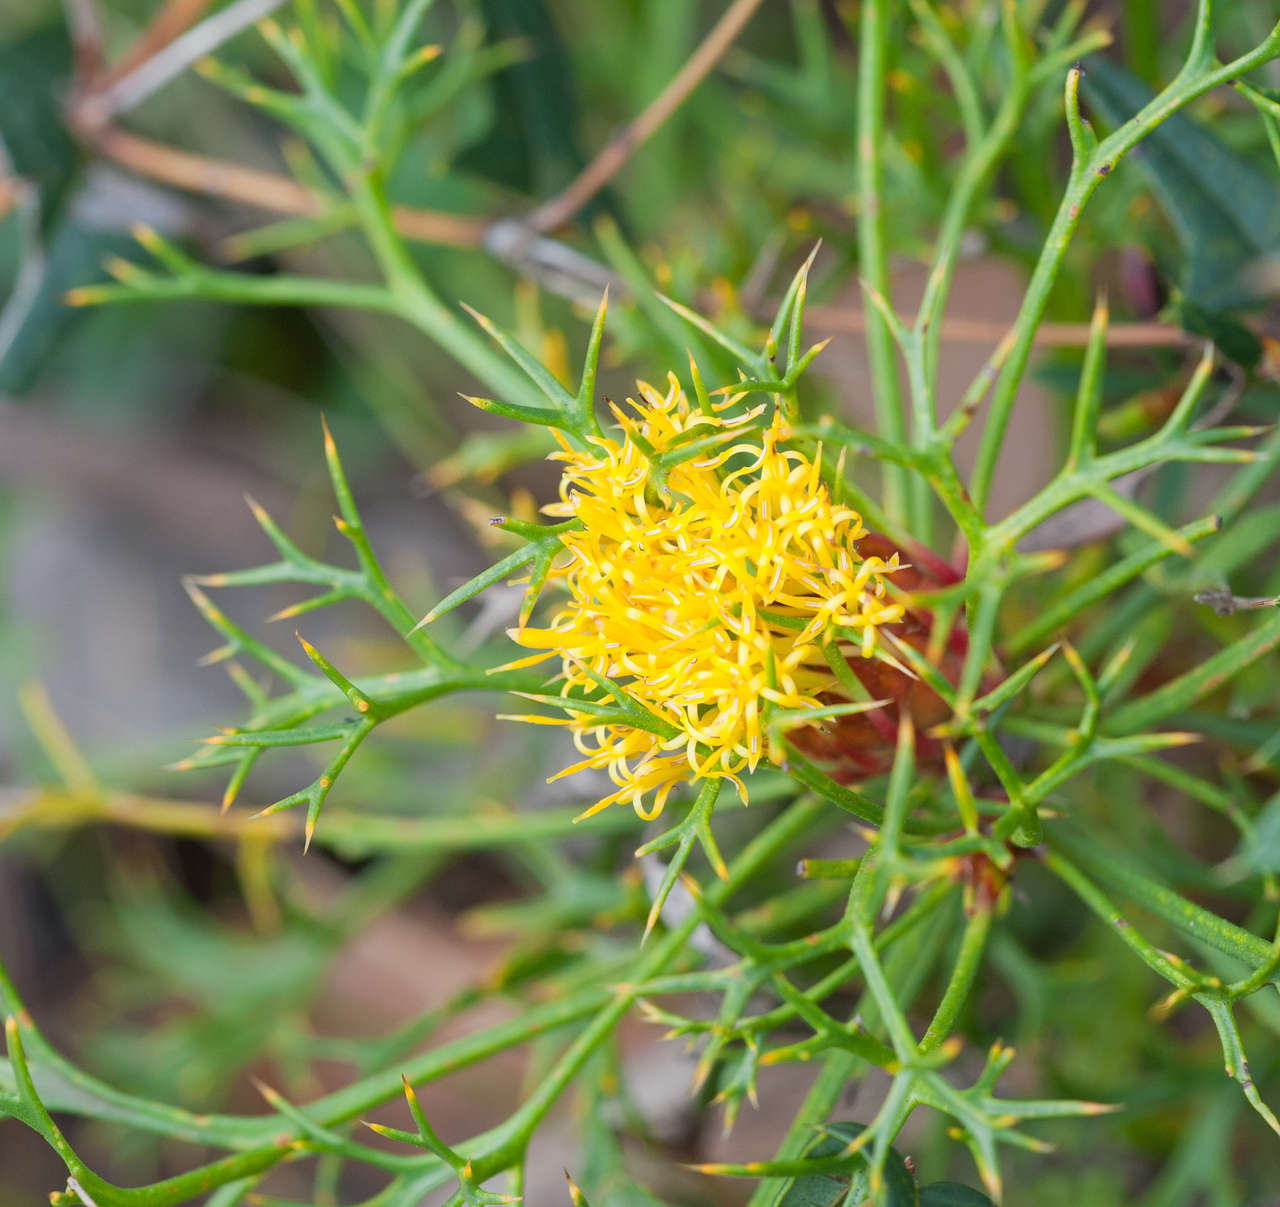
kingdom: Plantae
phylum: Tracheophyta
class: Magnoliopsida
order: Proteales
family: Proteaceae
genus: Isopogon
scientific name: Isopogon ceratophyllus
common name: Horny cone-bush
